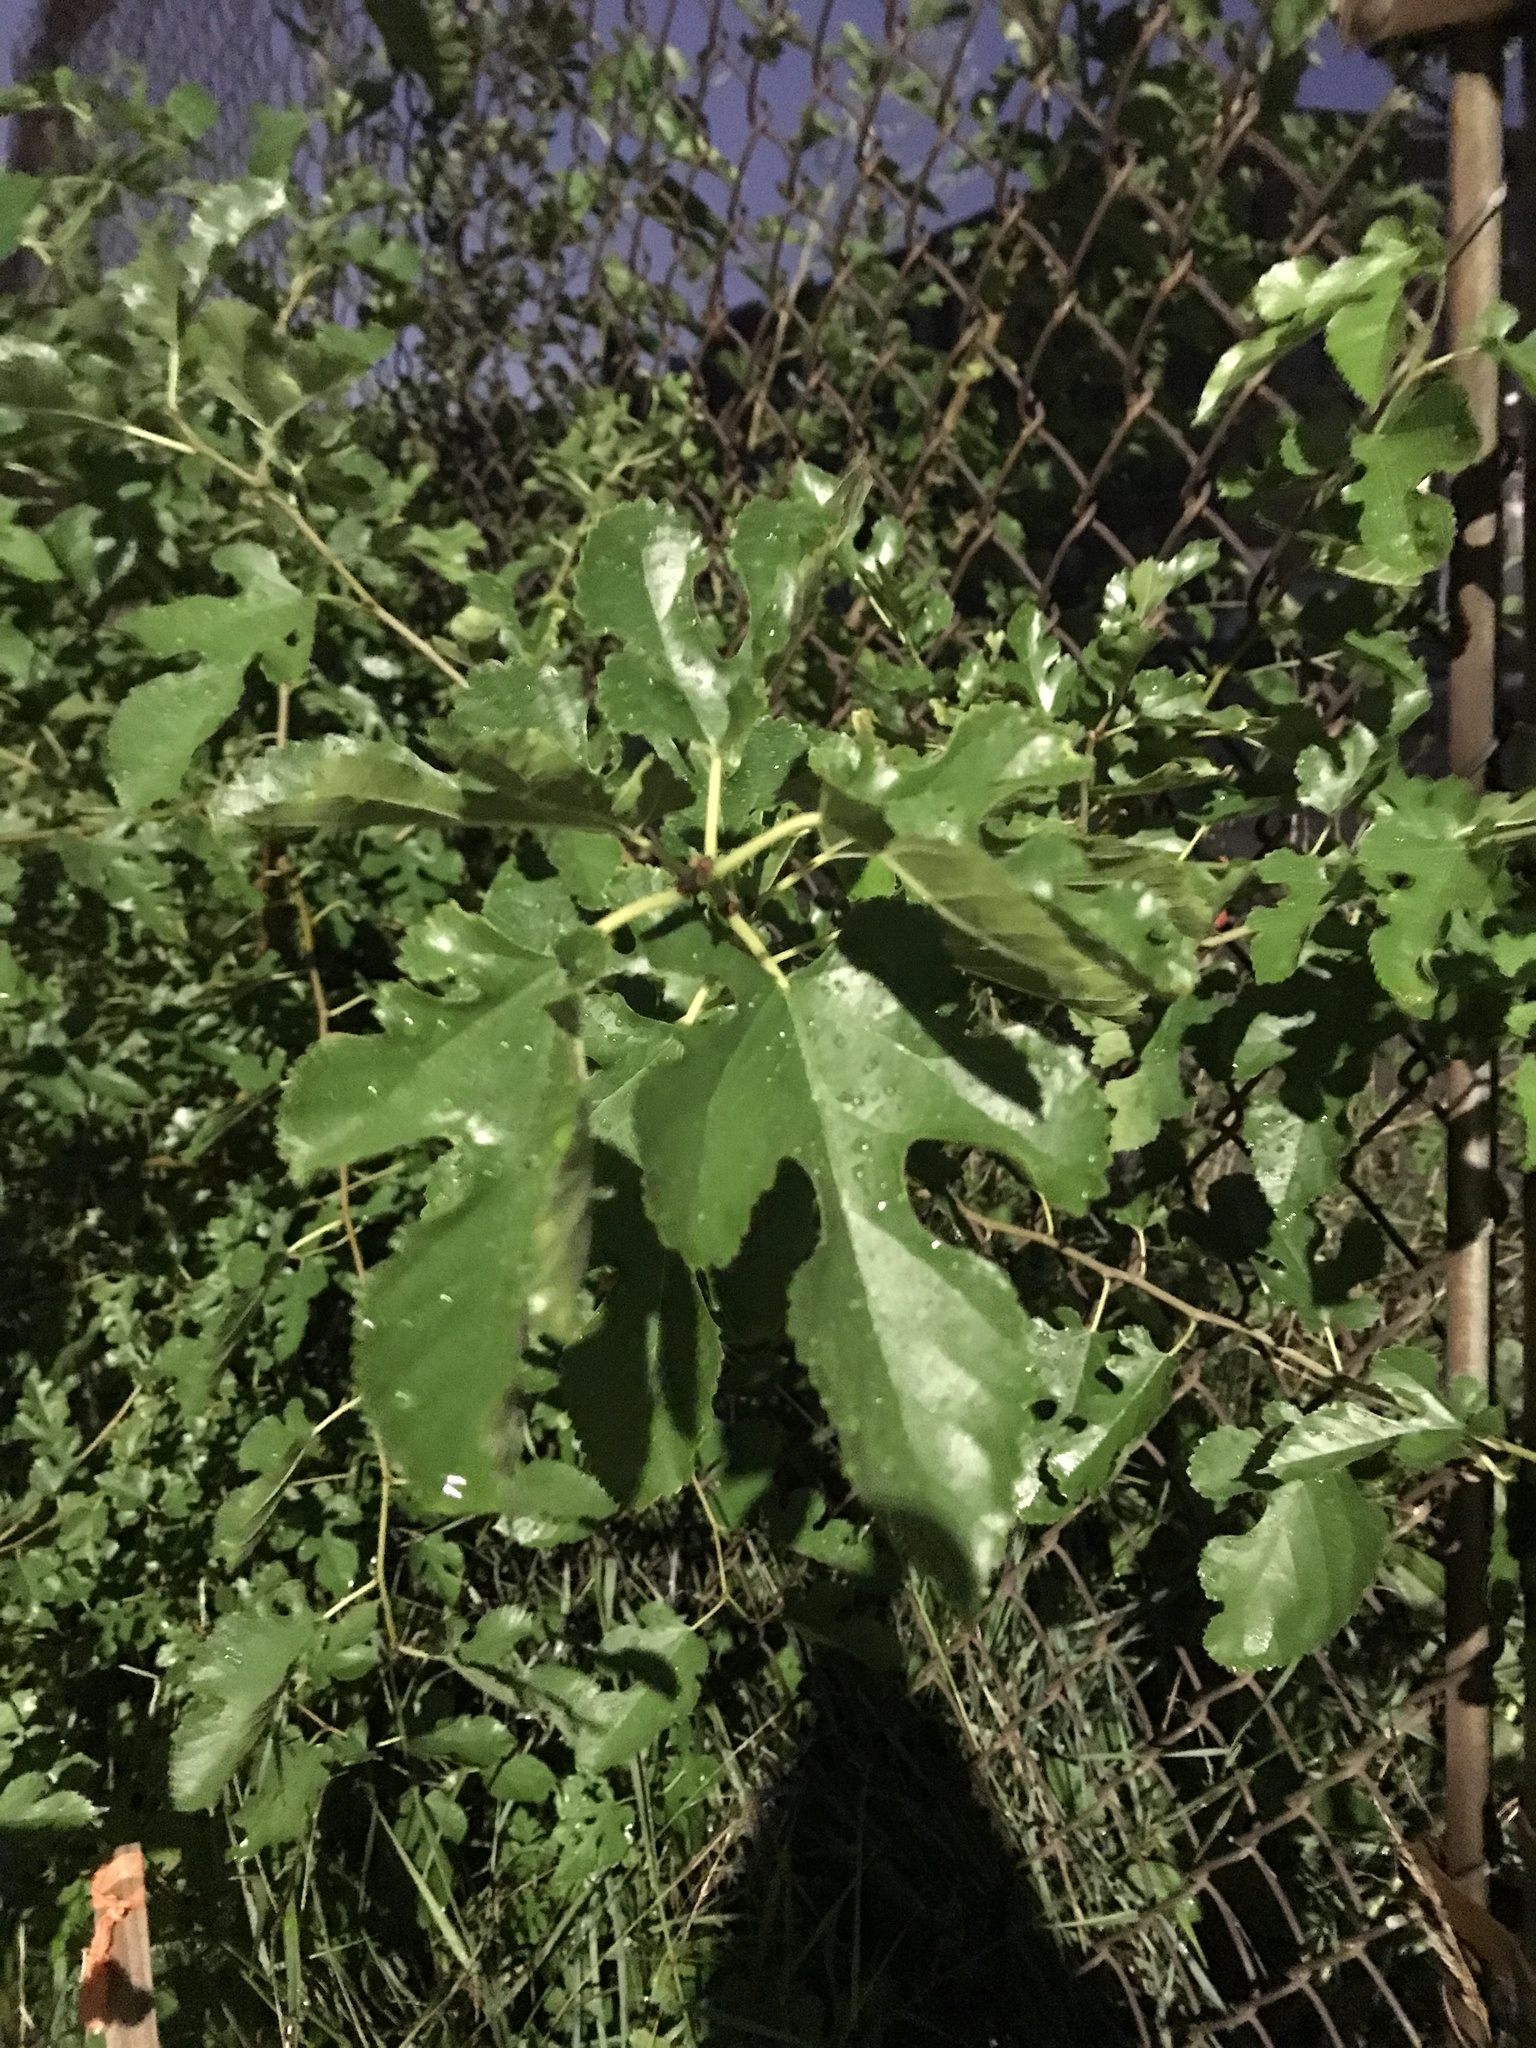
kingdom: Plantae
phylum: Tracheophyta
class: Magnoliopsida
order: Rosales
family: Moraceae
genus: Morus
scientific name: Morus alba
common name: White mulberry
